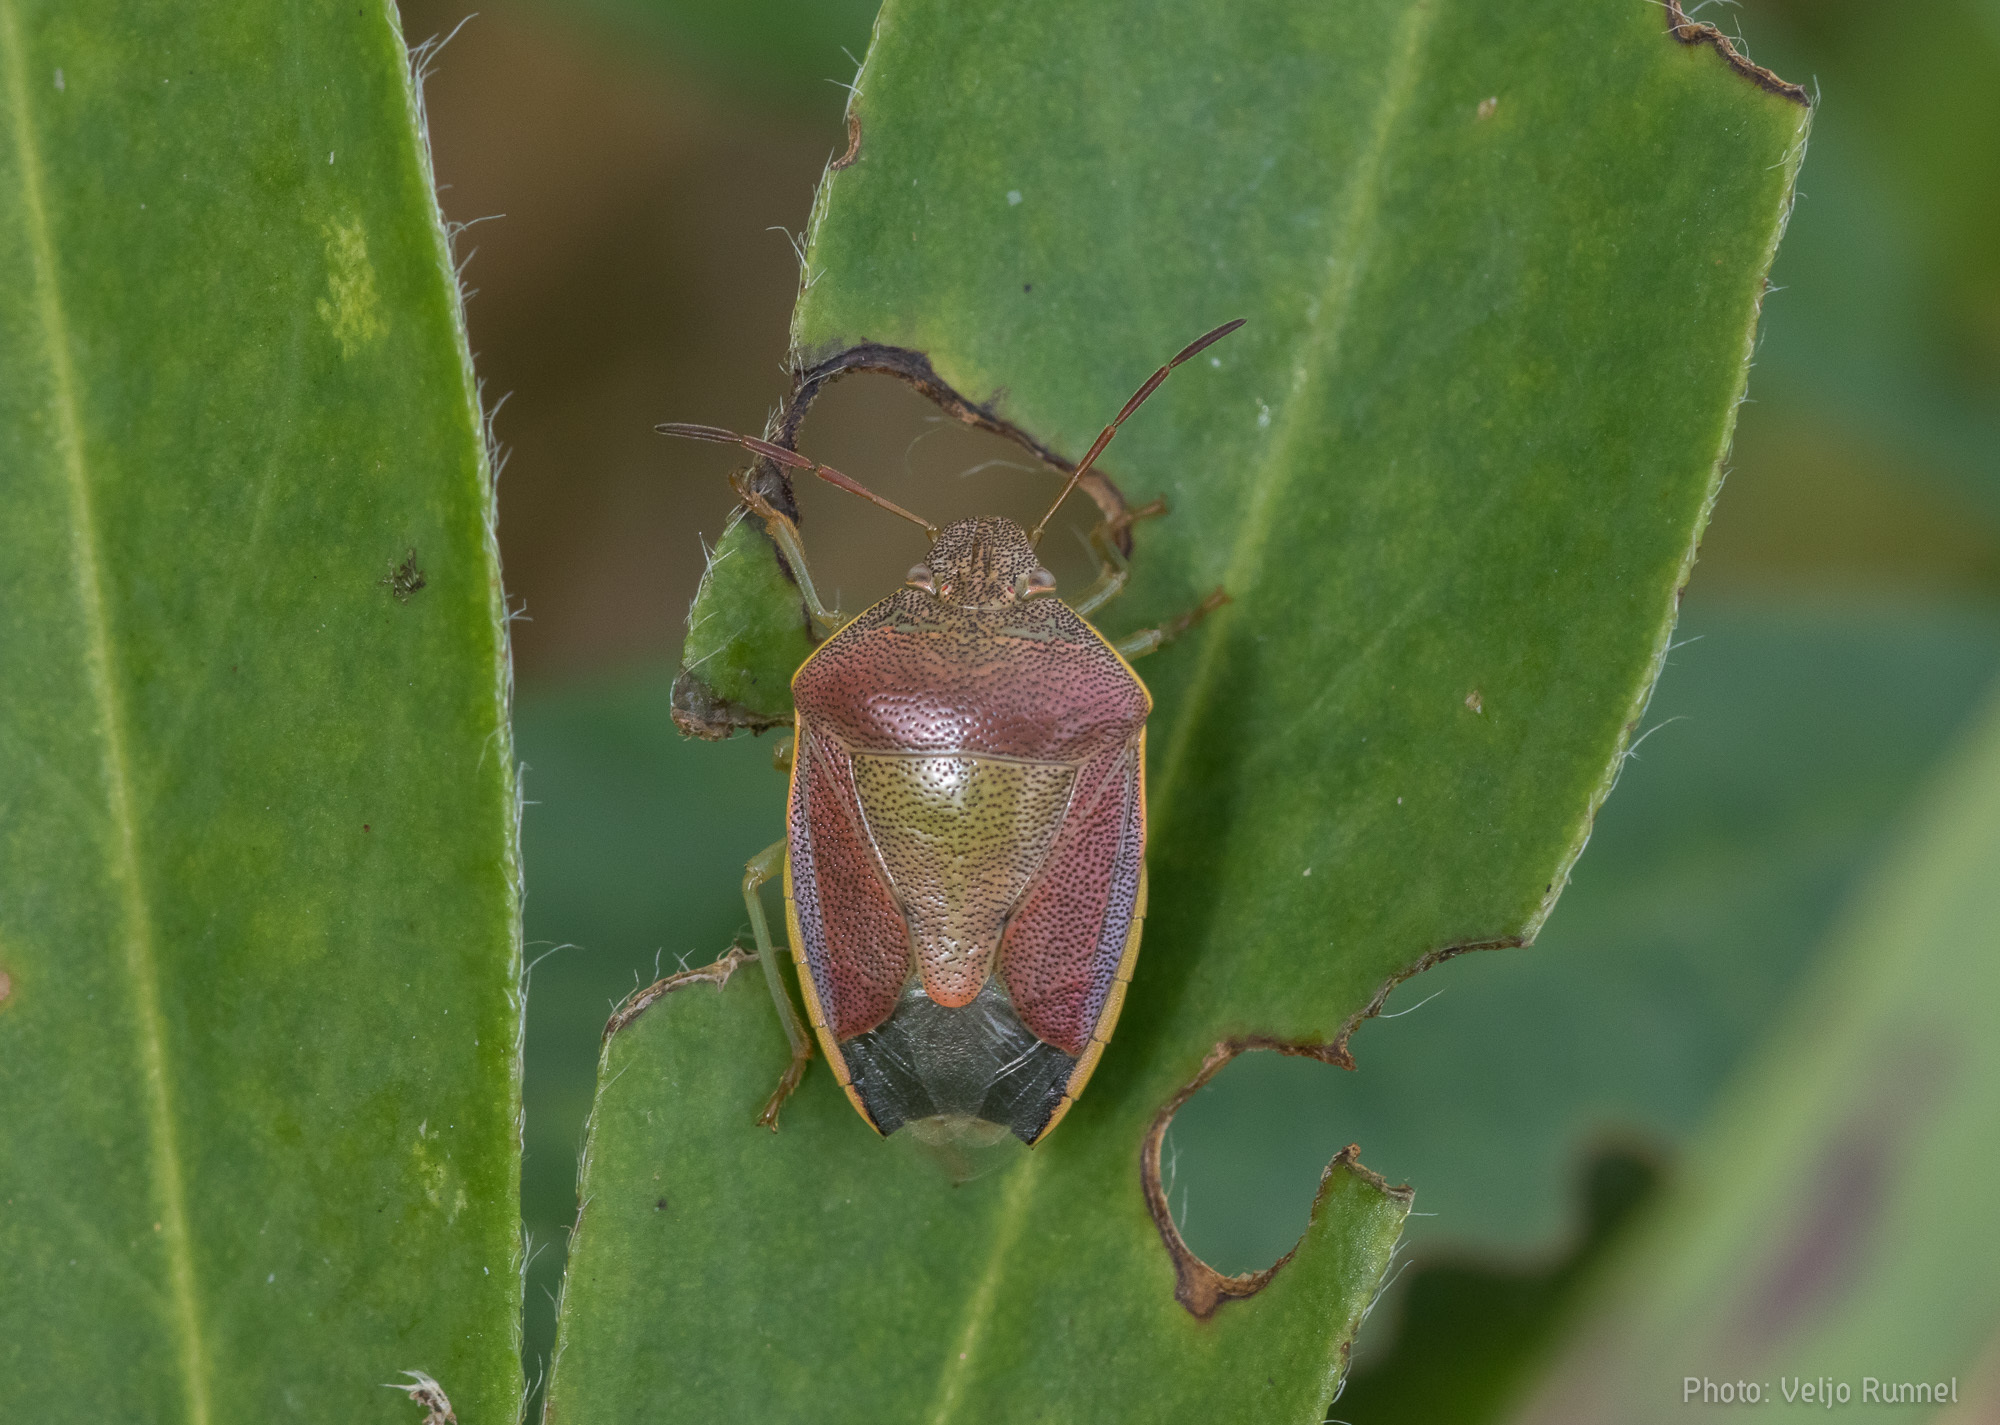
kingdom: Animalia
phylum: Arthropoda
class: Insecta
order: Hemiptera
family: Pentatomidae
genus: Piezodorus
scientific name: Piezodorus lituratus
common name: Stink bug
